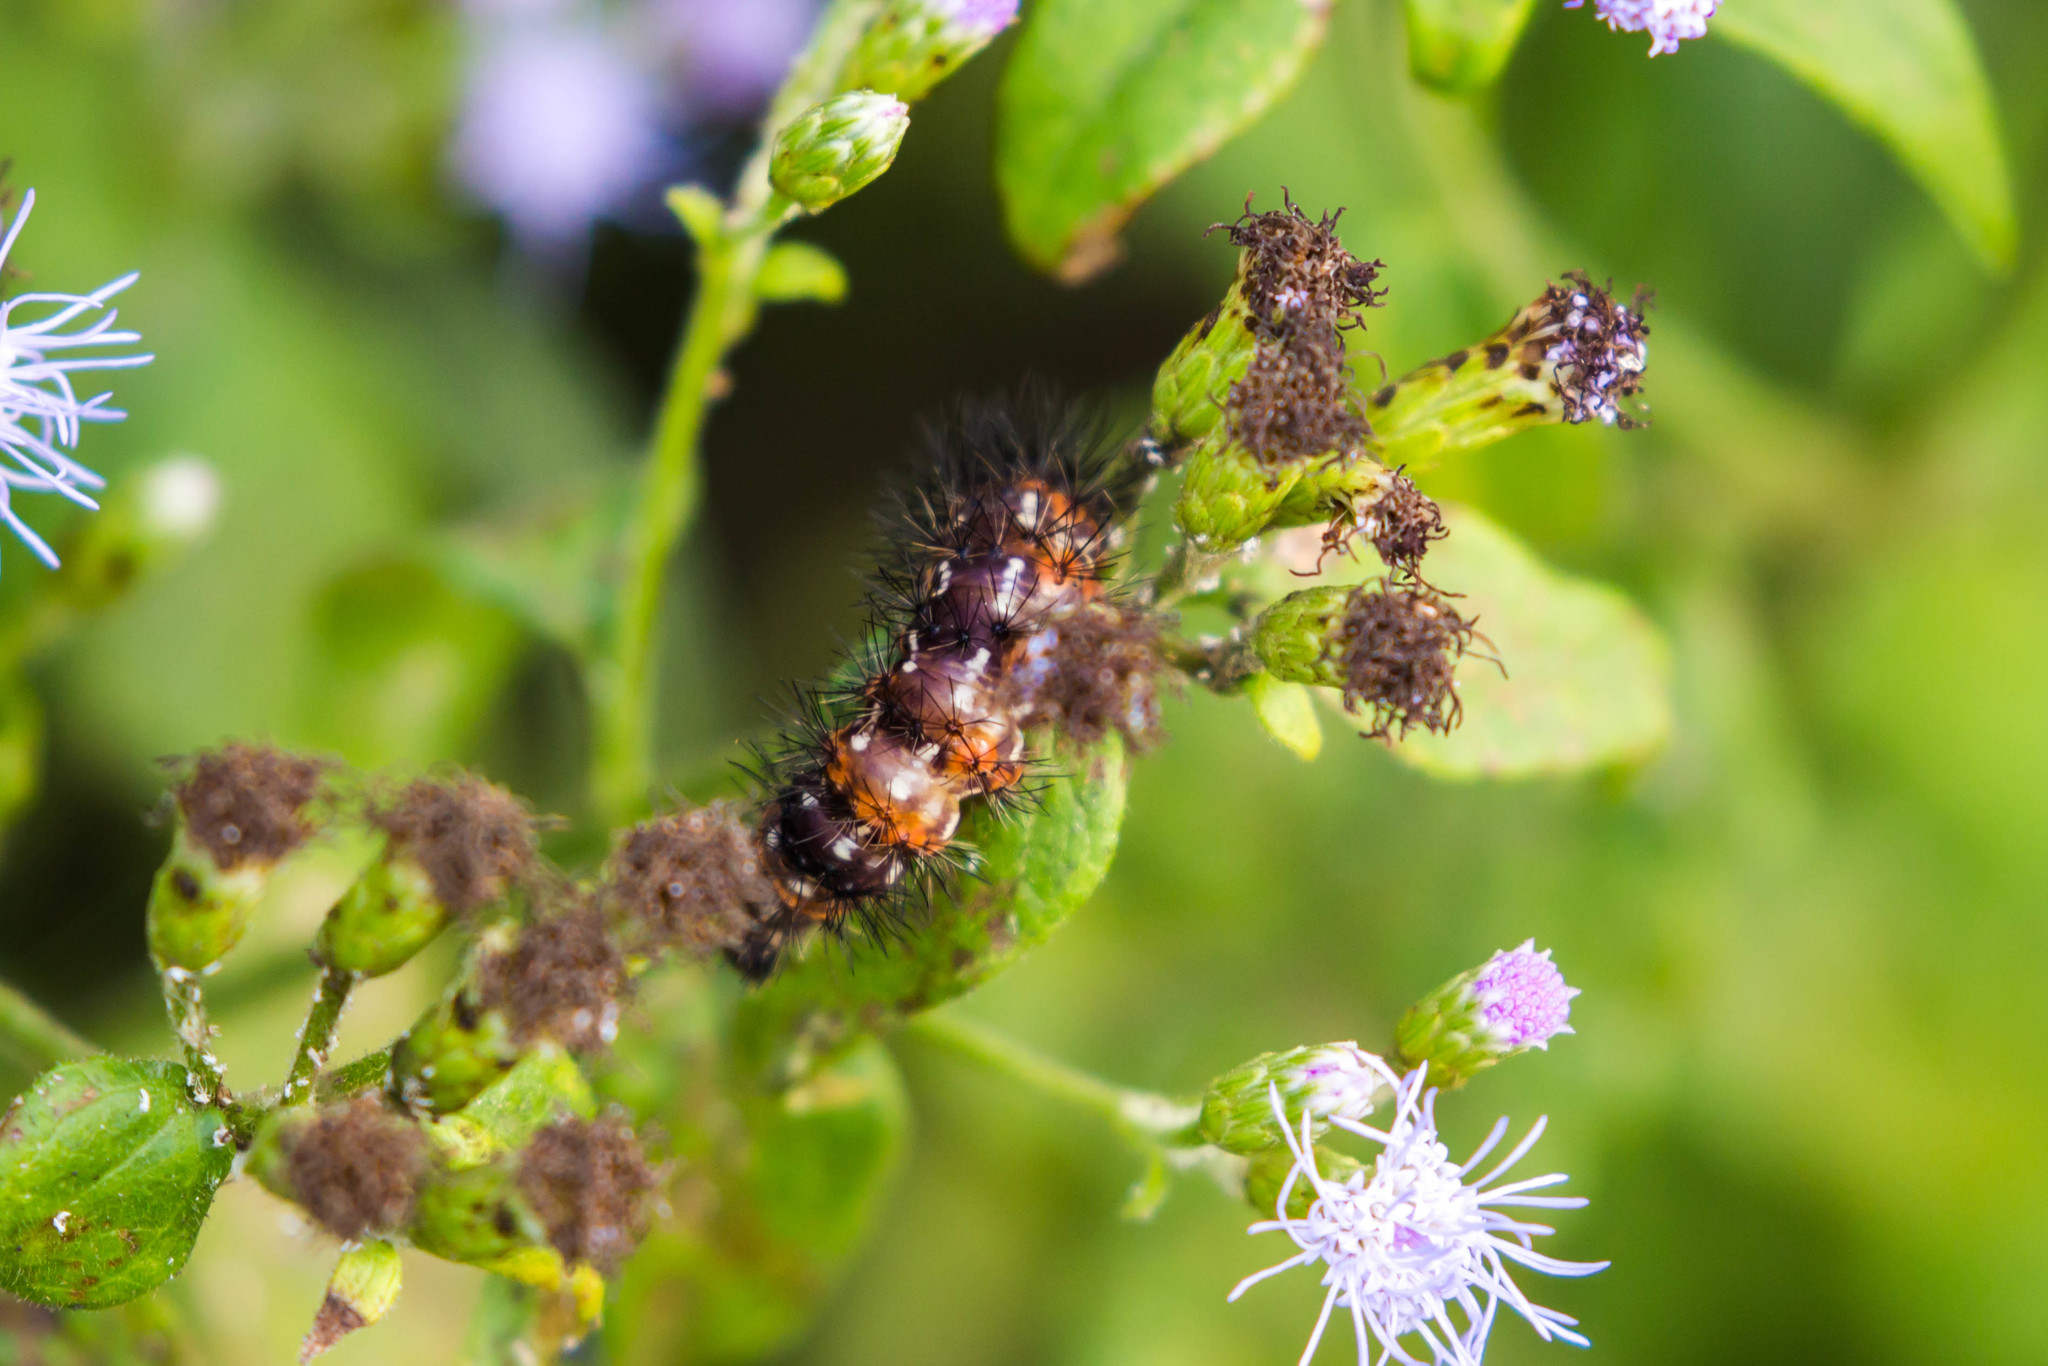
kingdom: Animalia
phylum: Arthropoda
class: Insecta
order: Lepidoptera
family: Erebidae
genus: Pareuchaetes
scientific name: Pareuchaetes insulata
